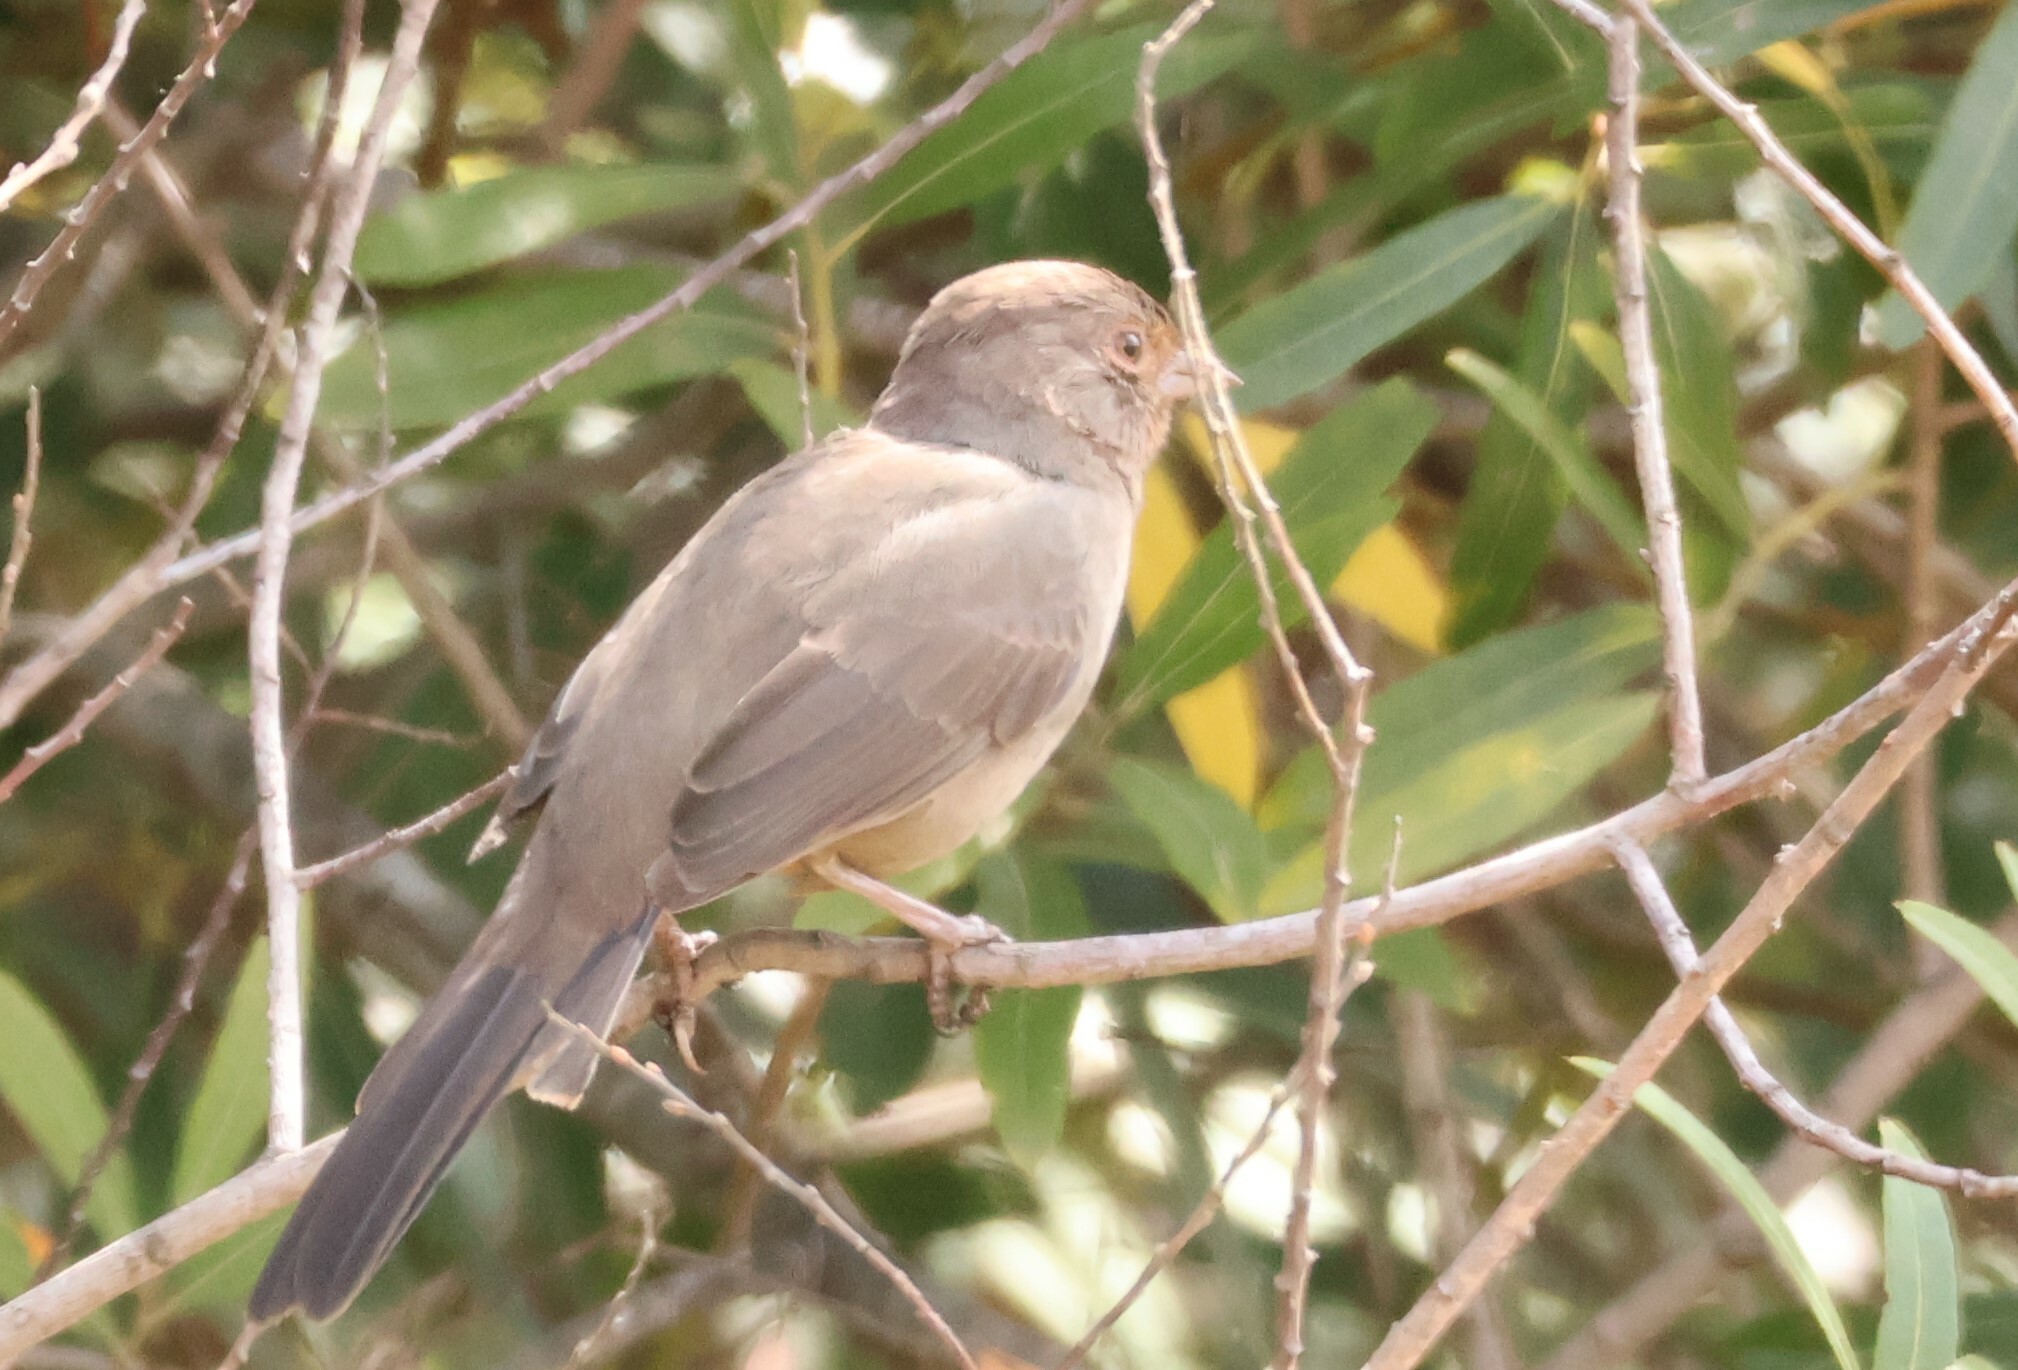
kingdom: Animalia
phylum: Chordata
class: Aves
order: Passeriformes
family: Passerellidae
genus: Melozone
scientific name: Melozone crissalis
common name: California towhee
